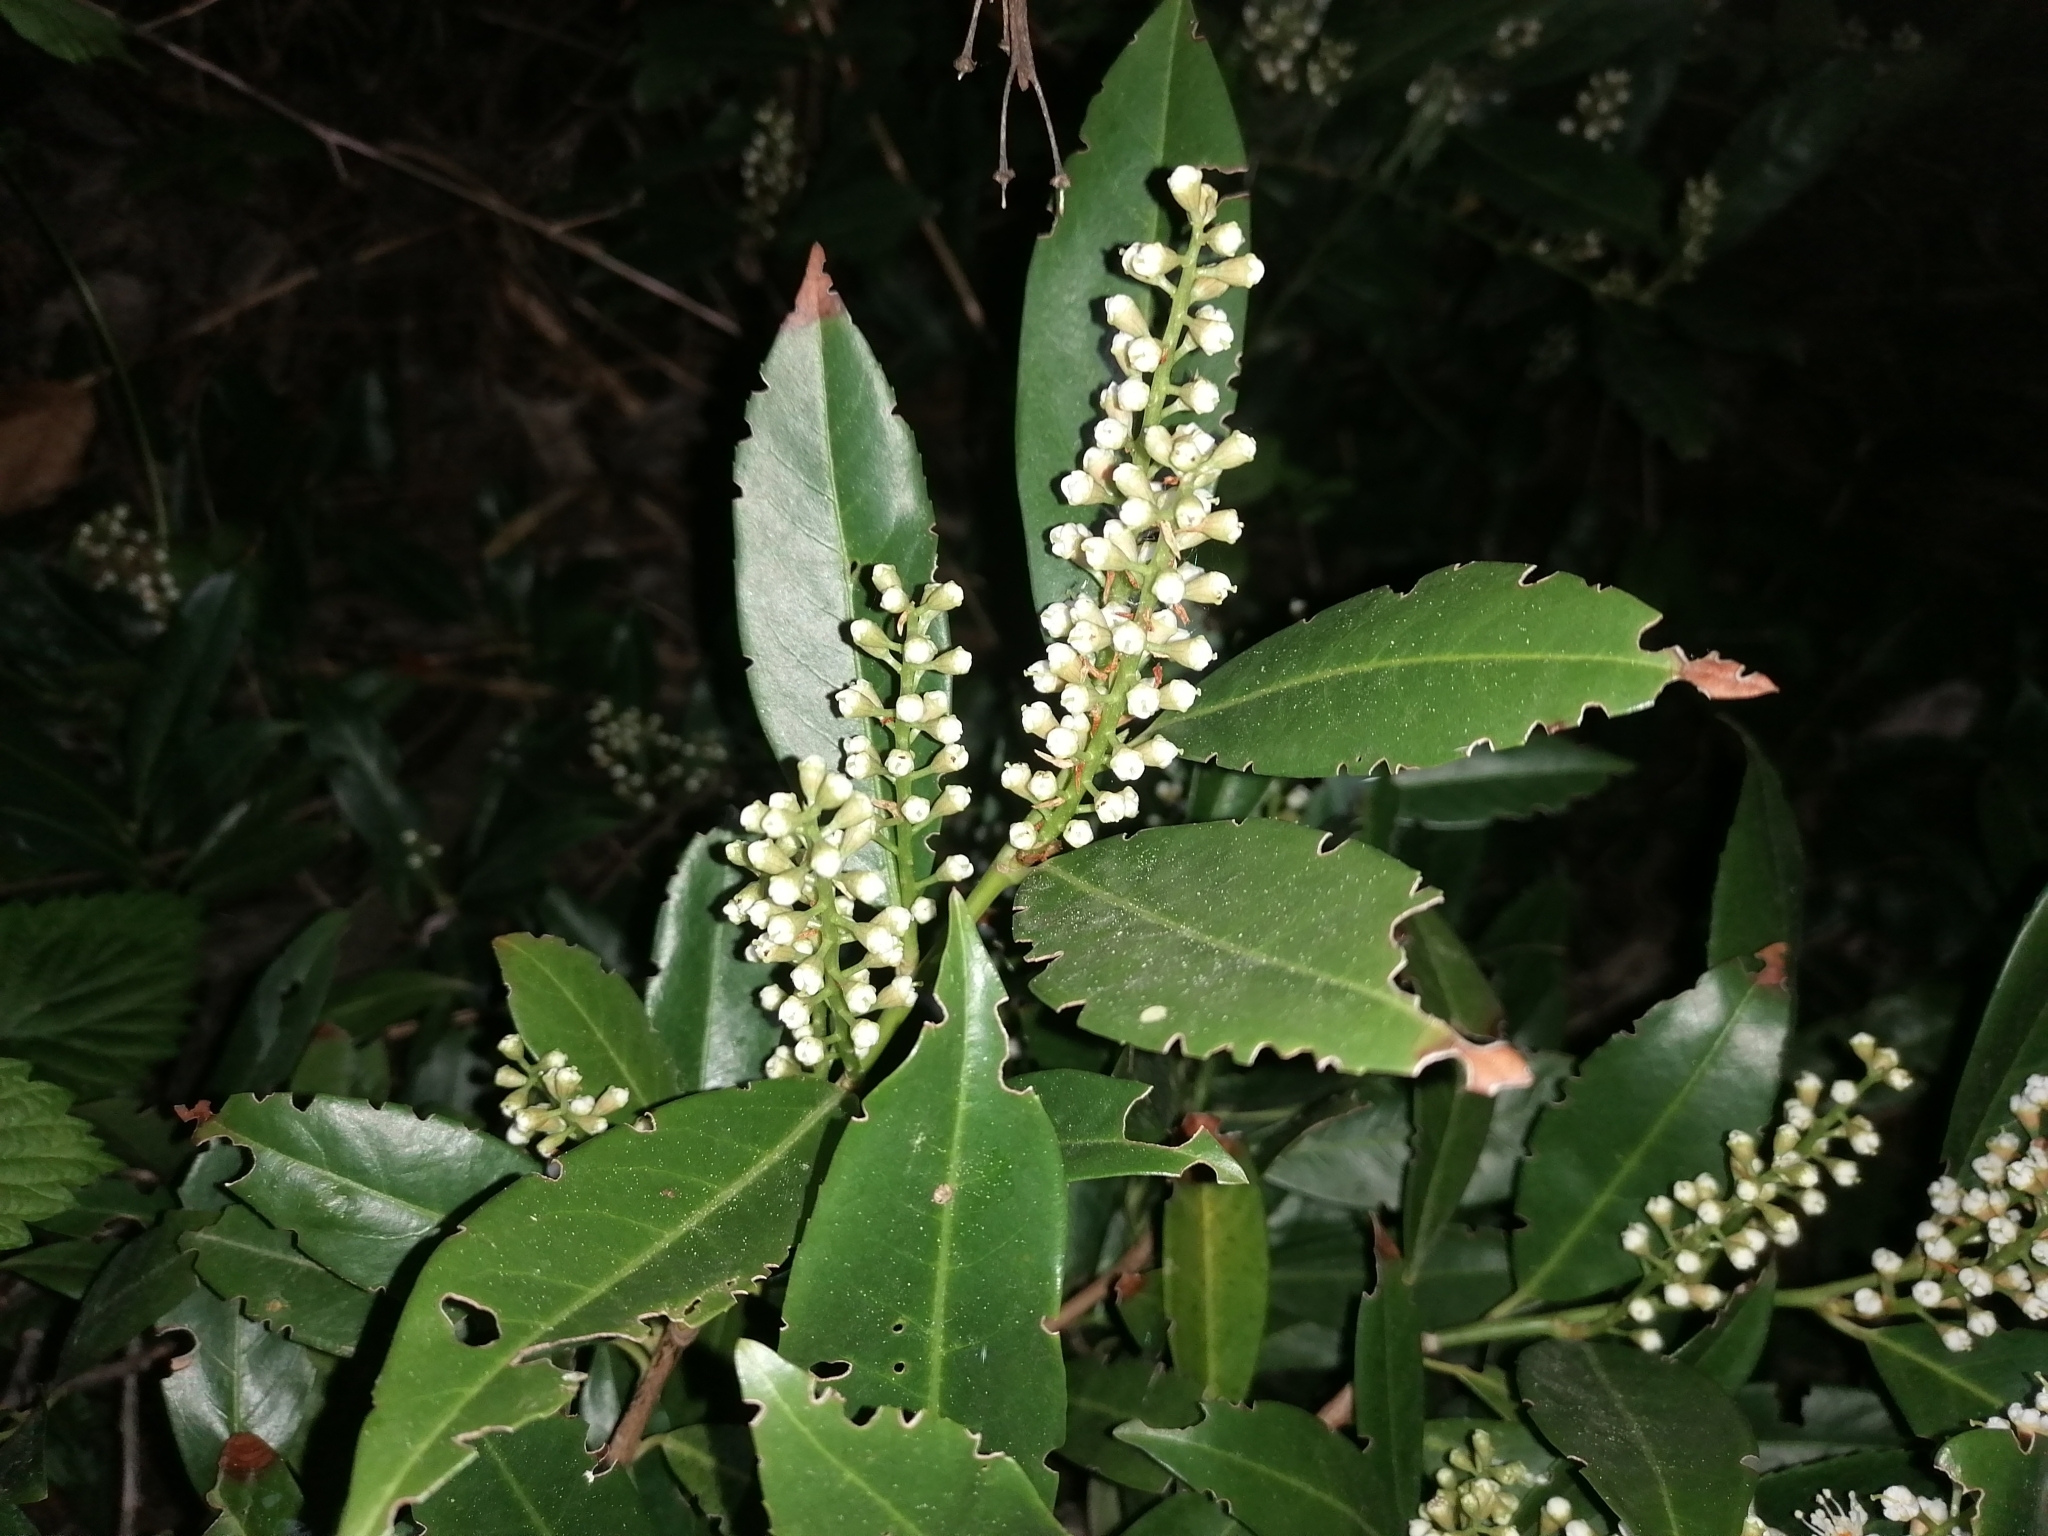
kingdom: Plantae
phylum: Tracheophyta
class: Magnoliopsida
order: Rosales
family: Rosaceae
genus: Prunus
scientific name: Prunus laurocerasus
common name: Cherry laurel
